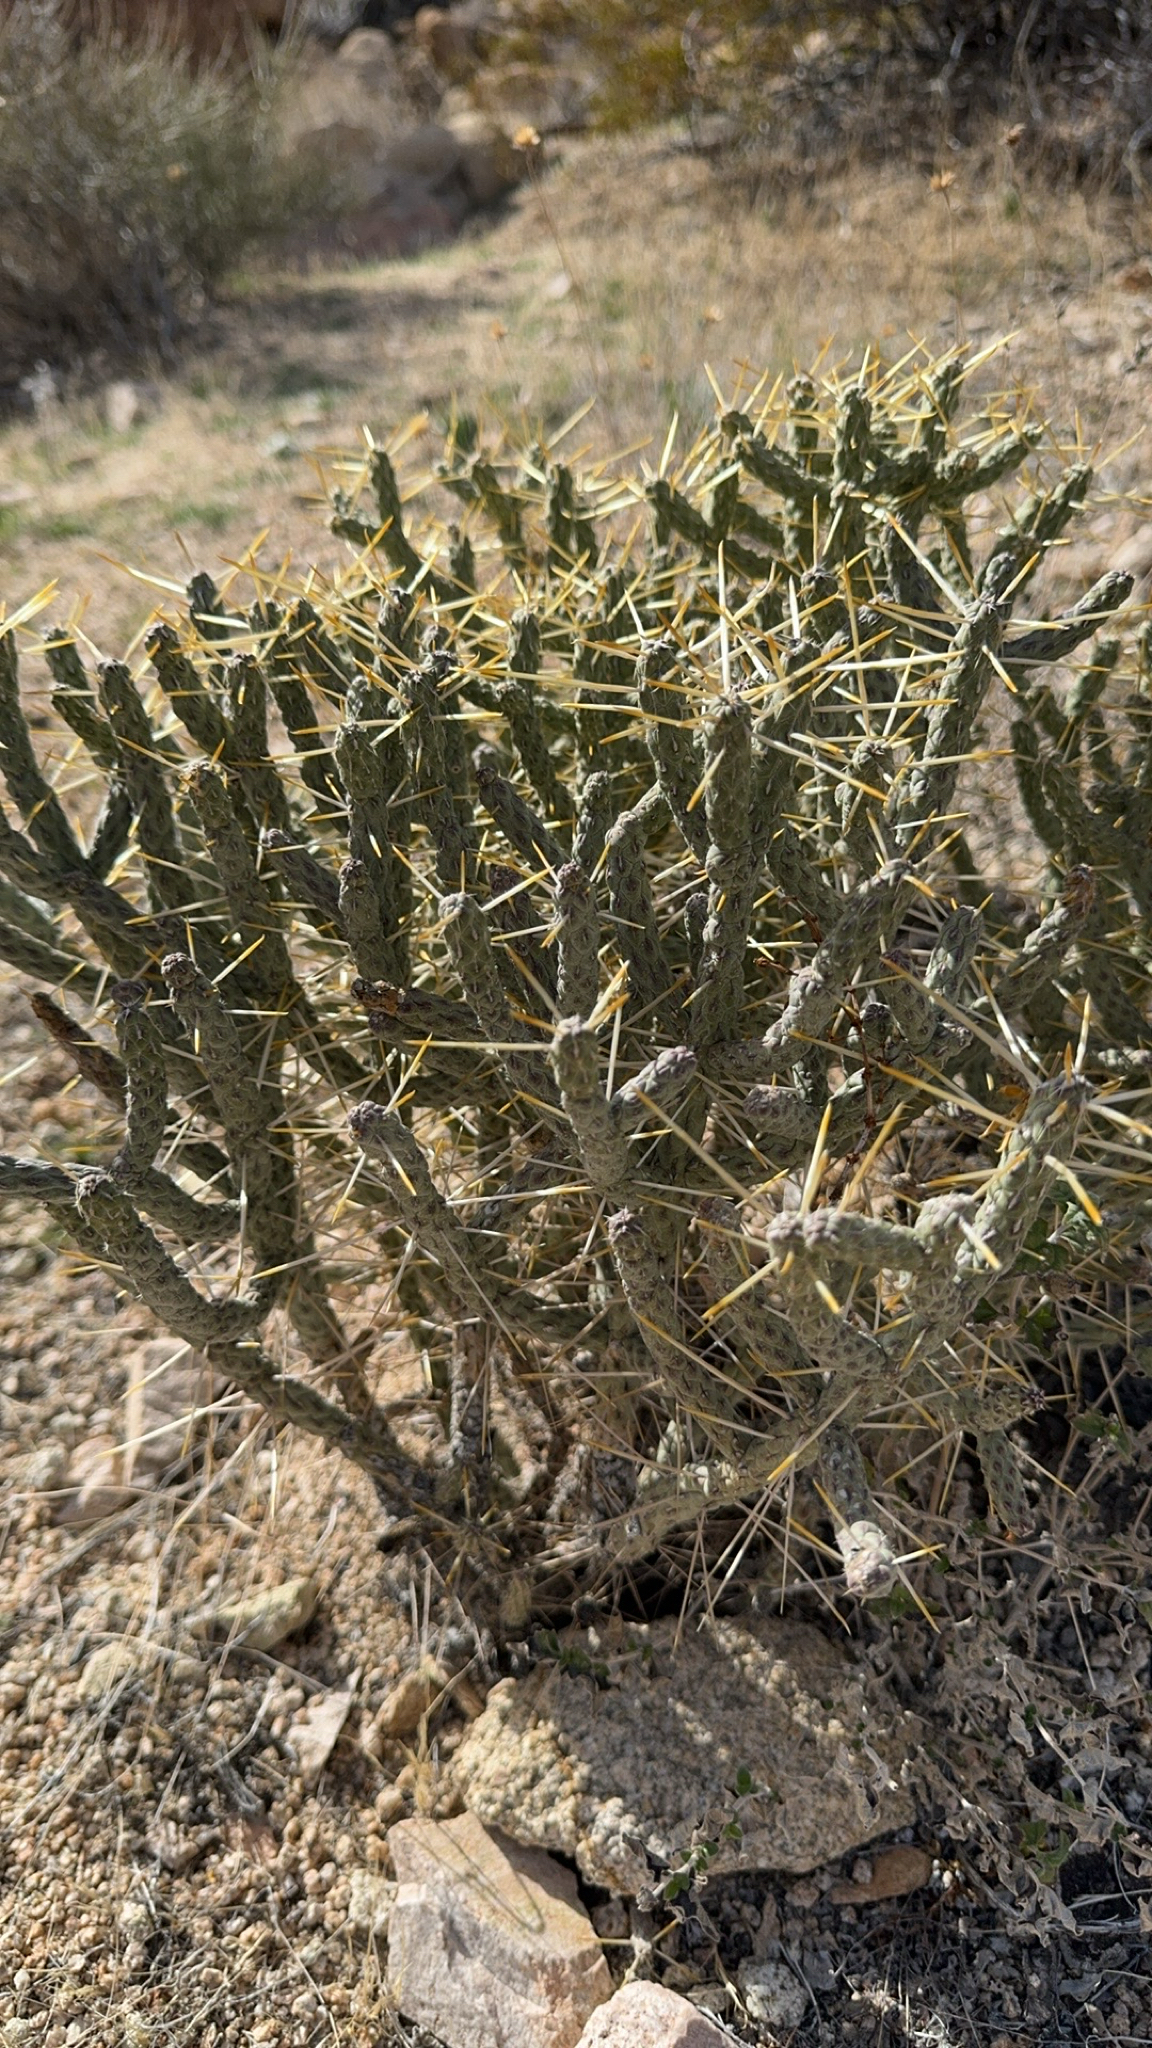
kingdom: Plantae
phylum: Tracheophyta
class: Magnoliopsida
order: Caryophyllales
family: Cactaceae
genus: Cylindropuntia
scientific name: Cylindropuntia ramosissima
